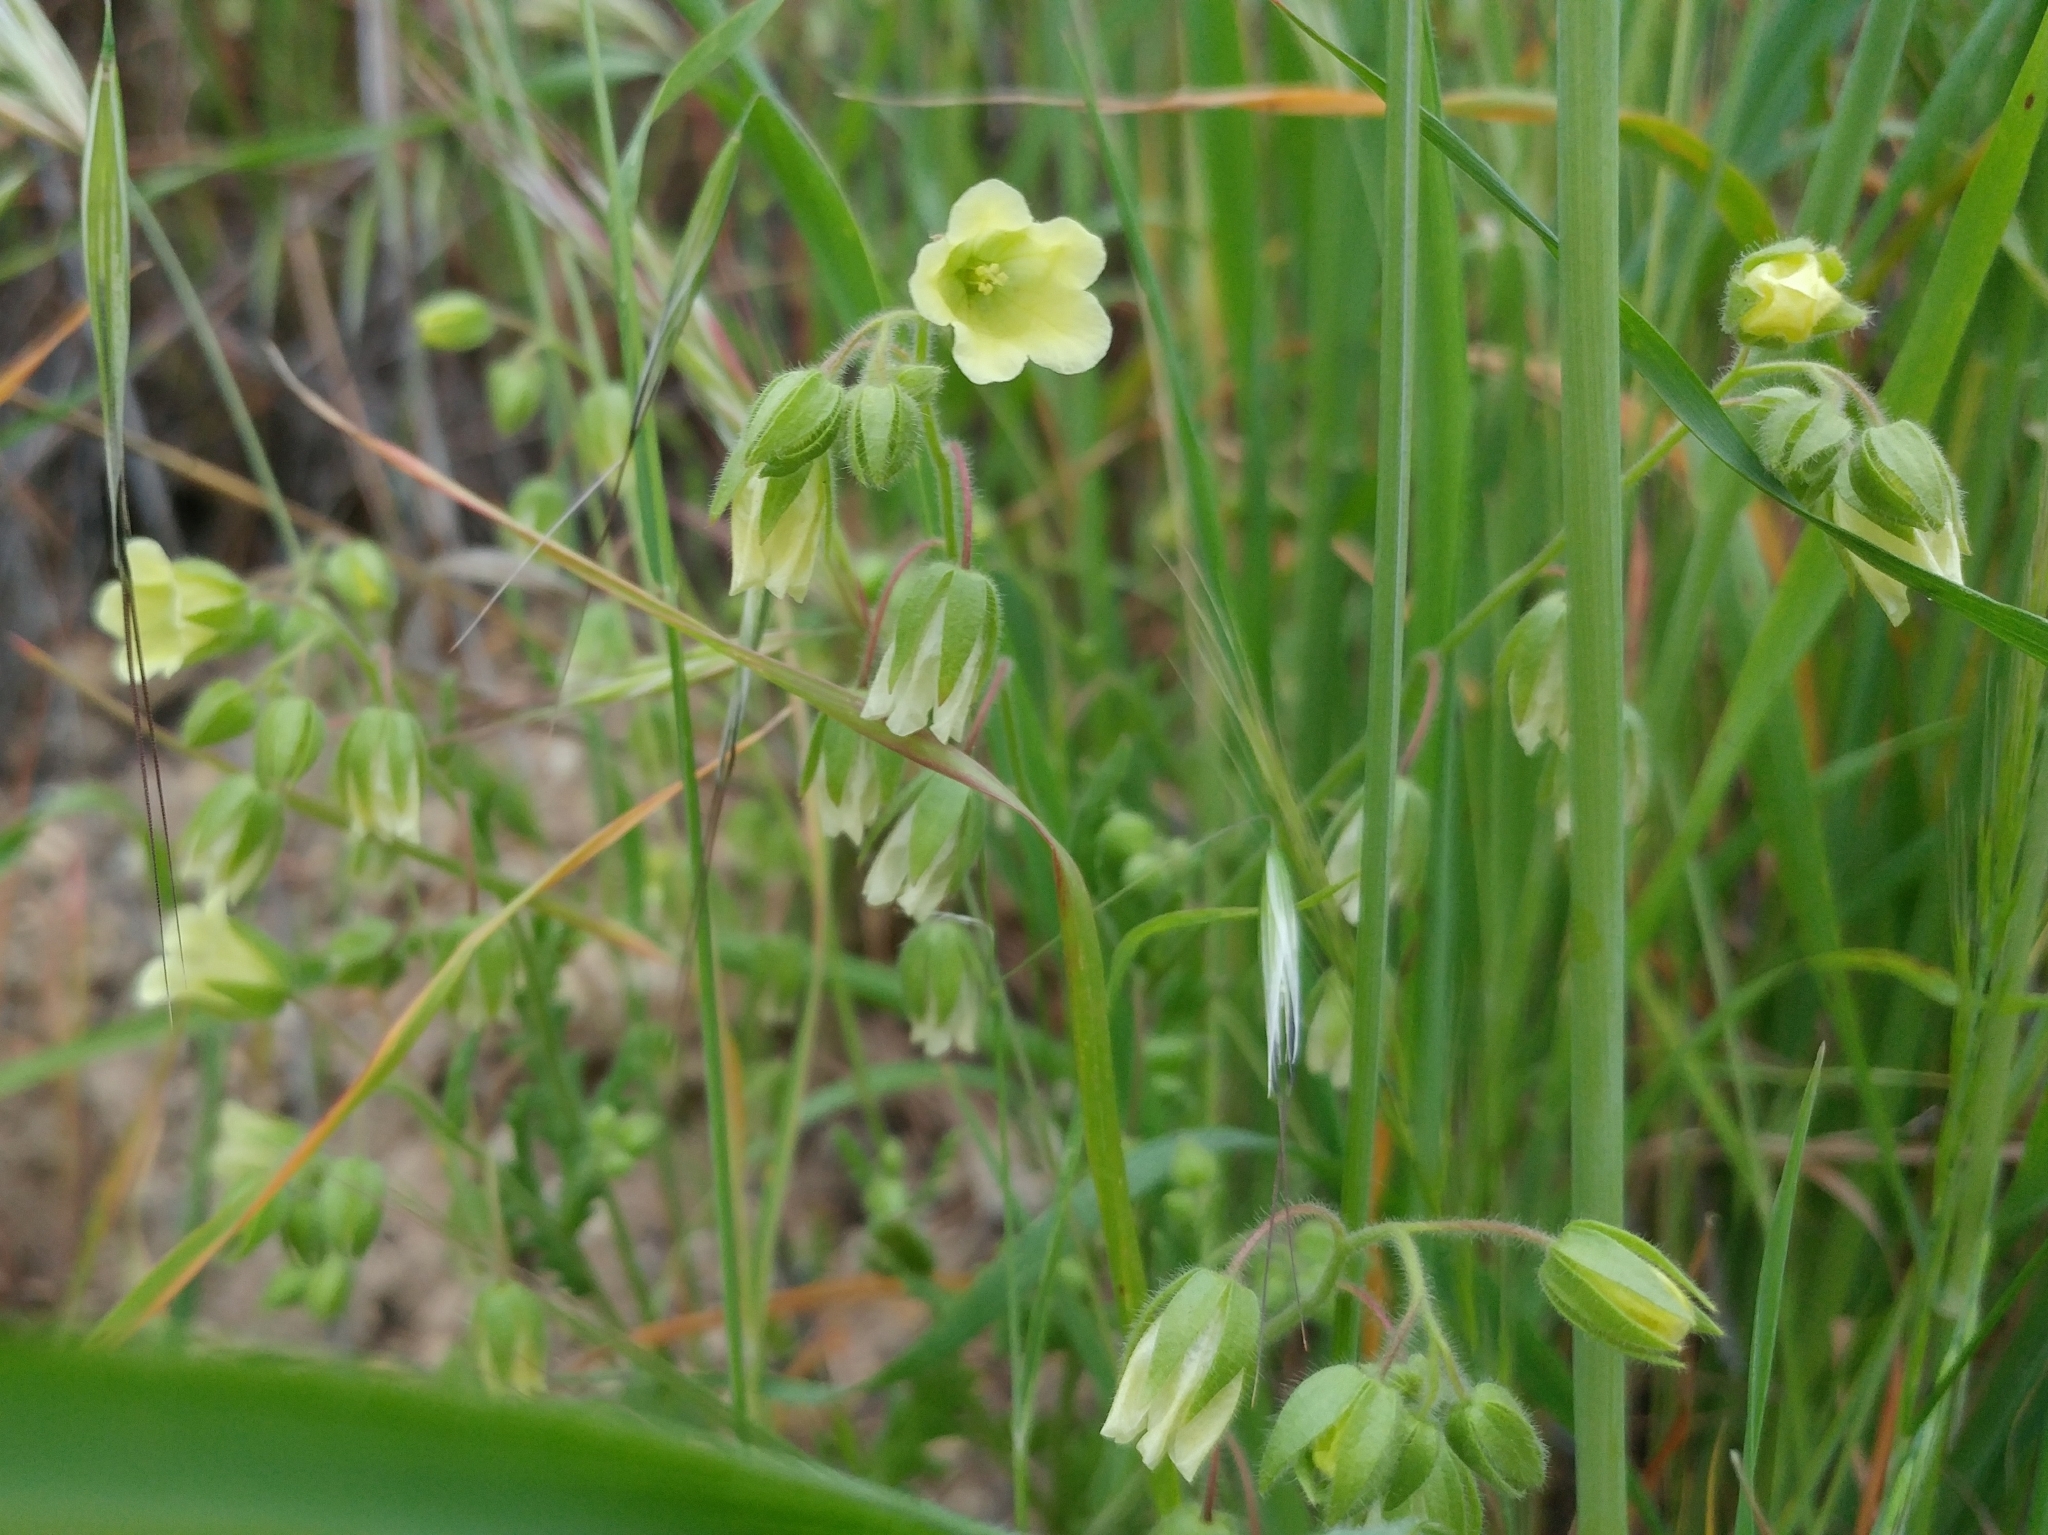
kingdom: Plantae
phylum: Tracheophyta
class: Magnoliopsida
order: Boraginales
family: Hydrophyllaceae
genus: Emmenanthe
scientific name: Emmenanthe penduliflora
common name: Whispering-bells
